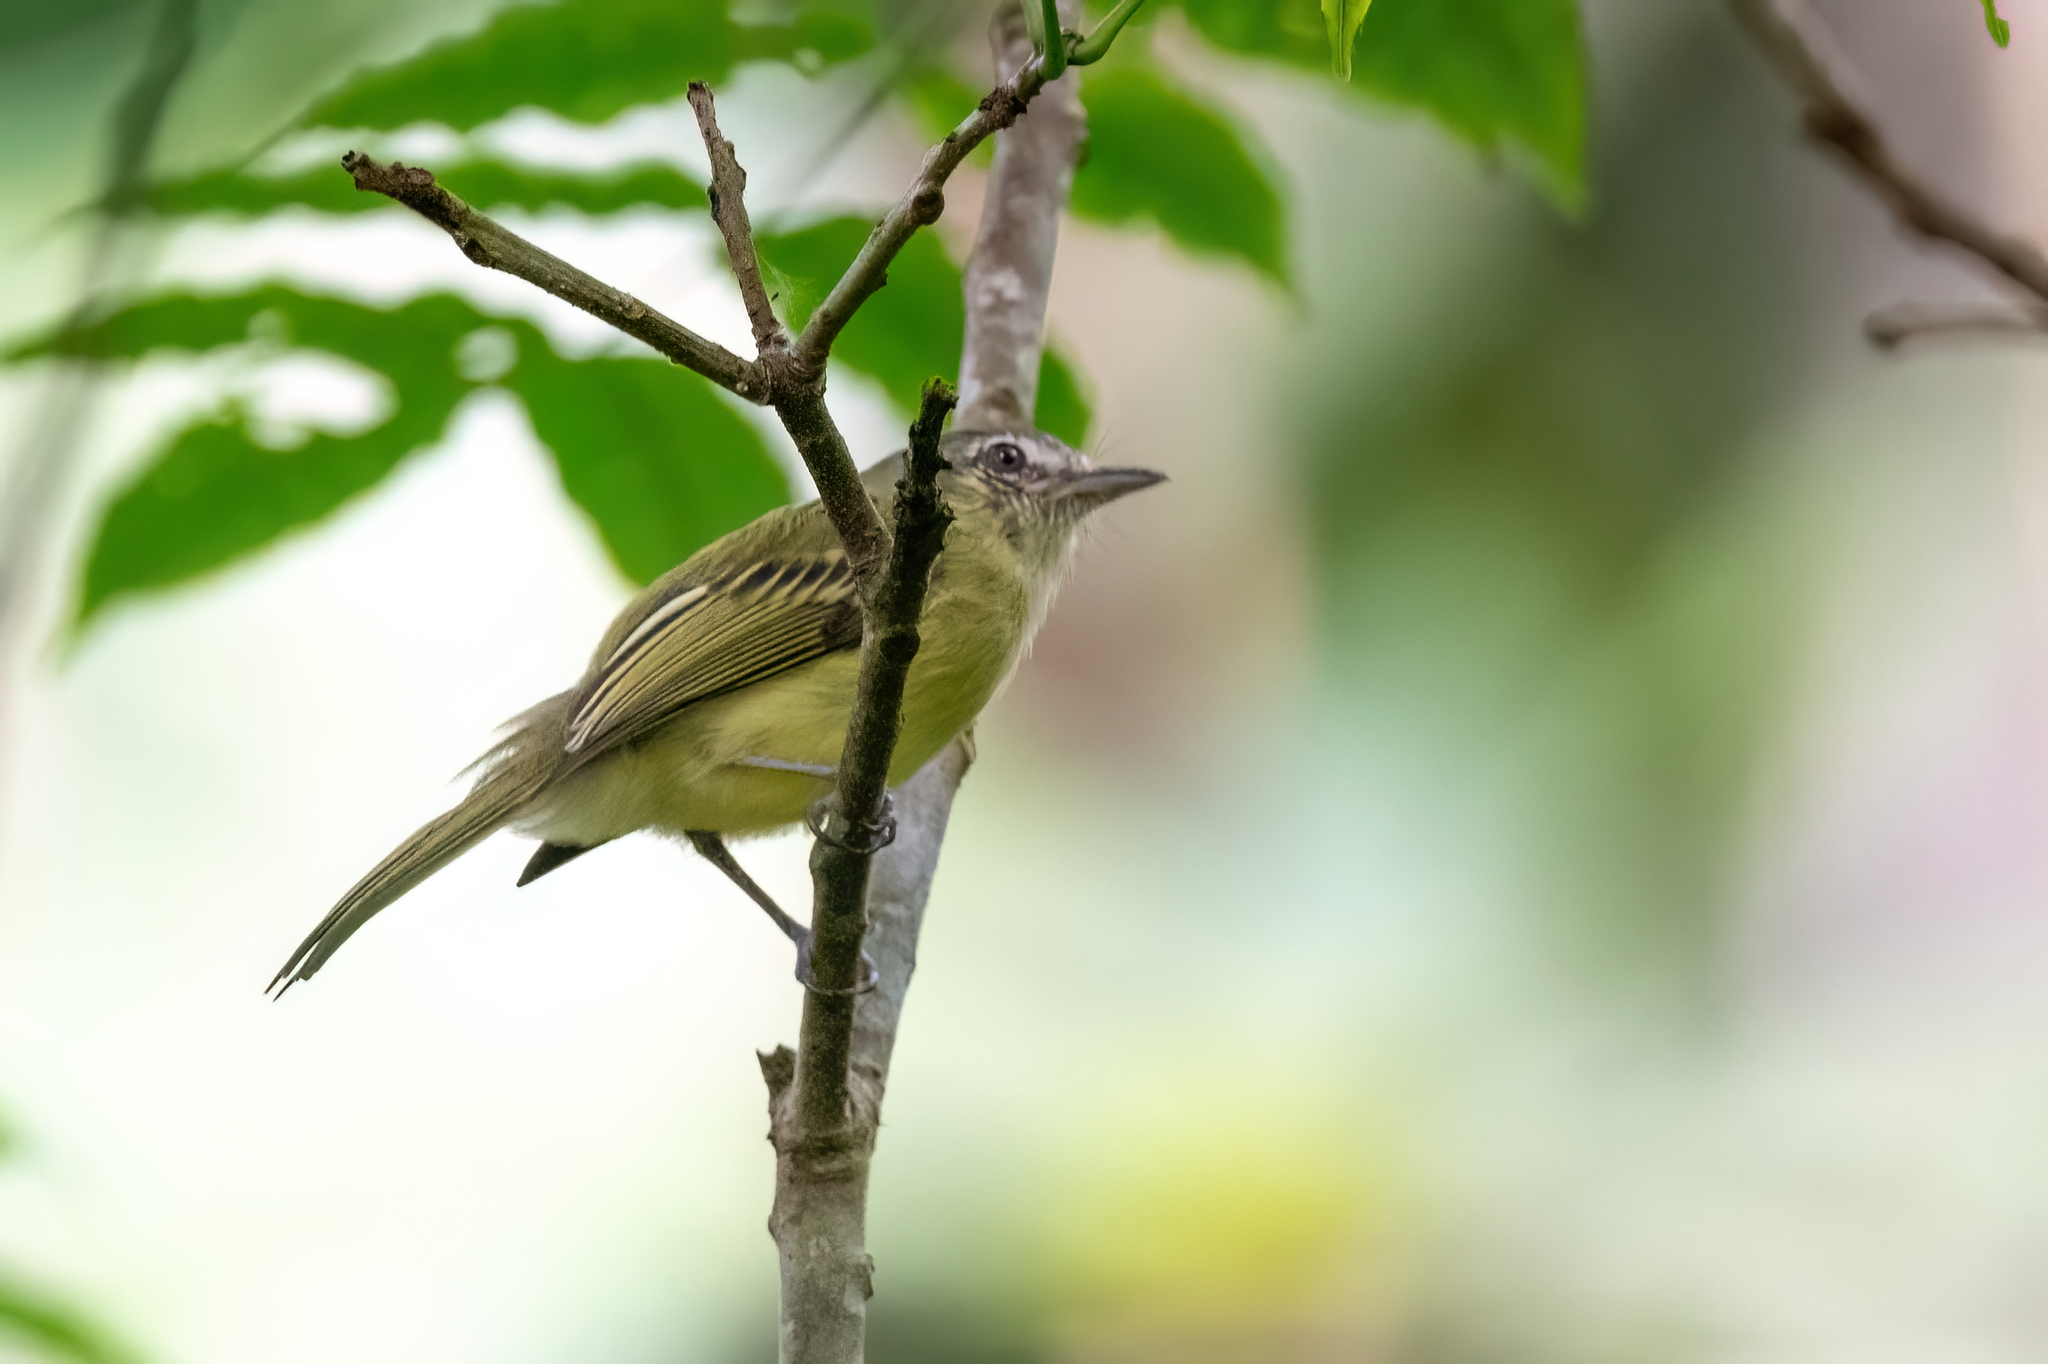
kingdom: Animalia
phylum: Chordata
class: Aves
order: Passeriformes
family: Tyrannidae
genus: Tolmomyias
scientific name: Tolmomyias sulphurescens
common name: Yellow-olive flycatcher
